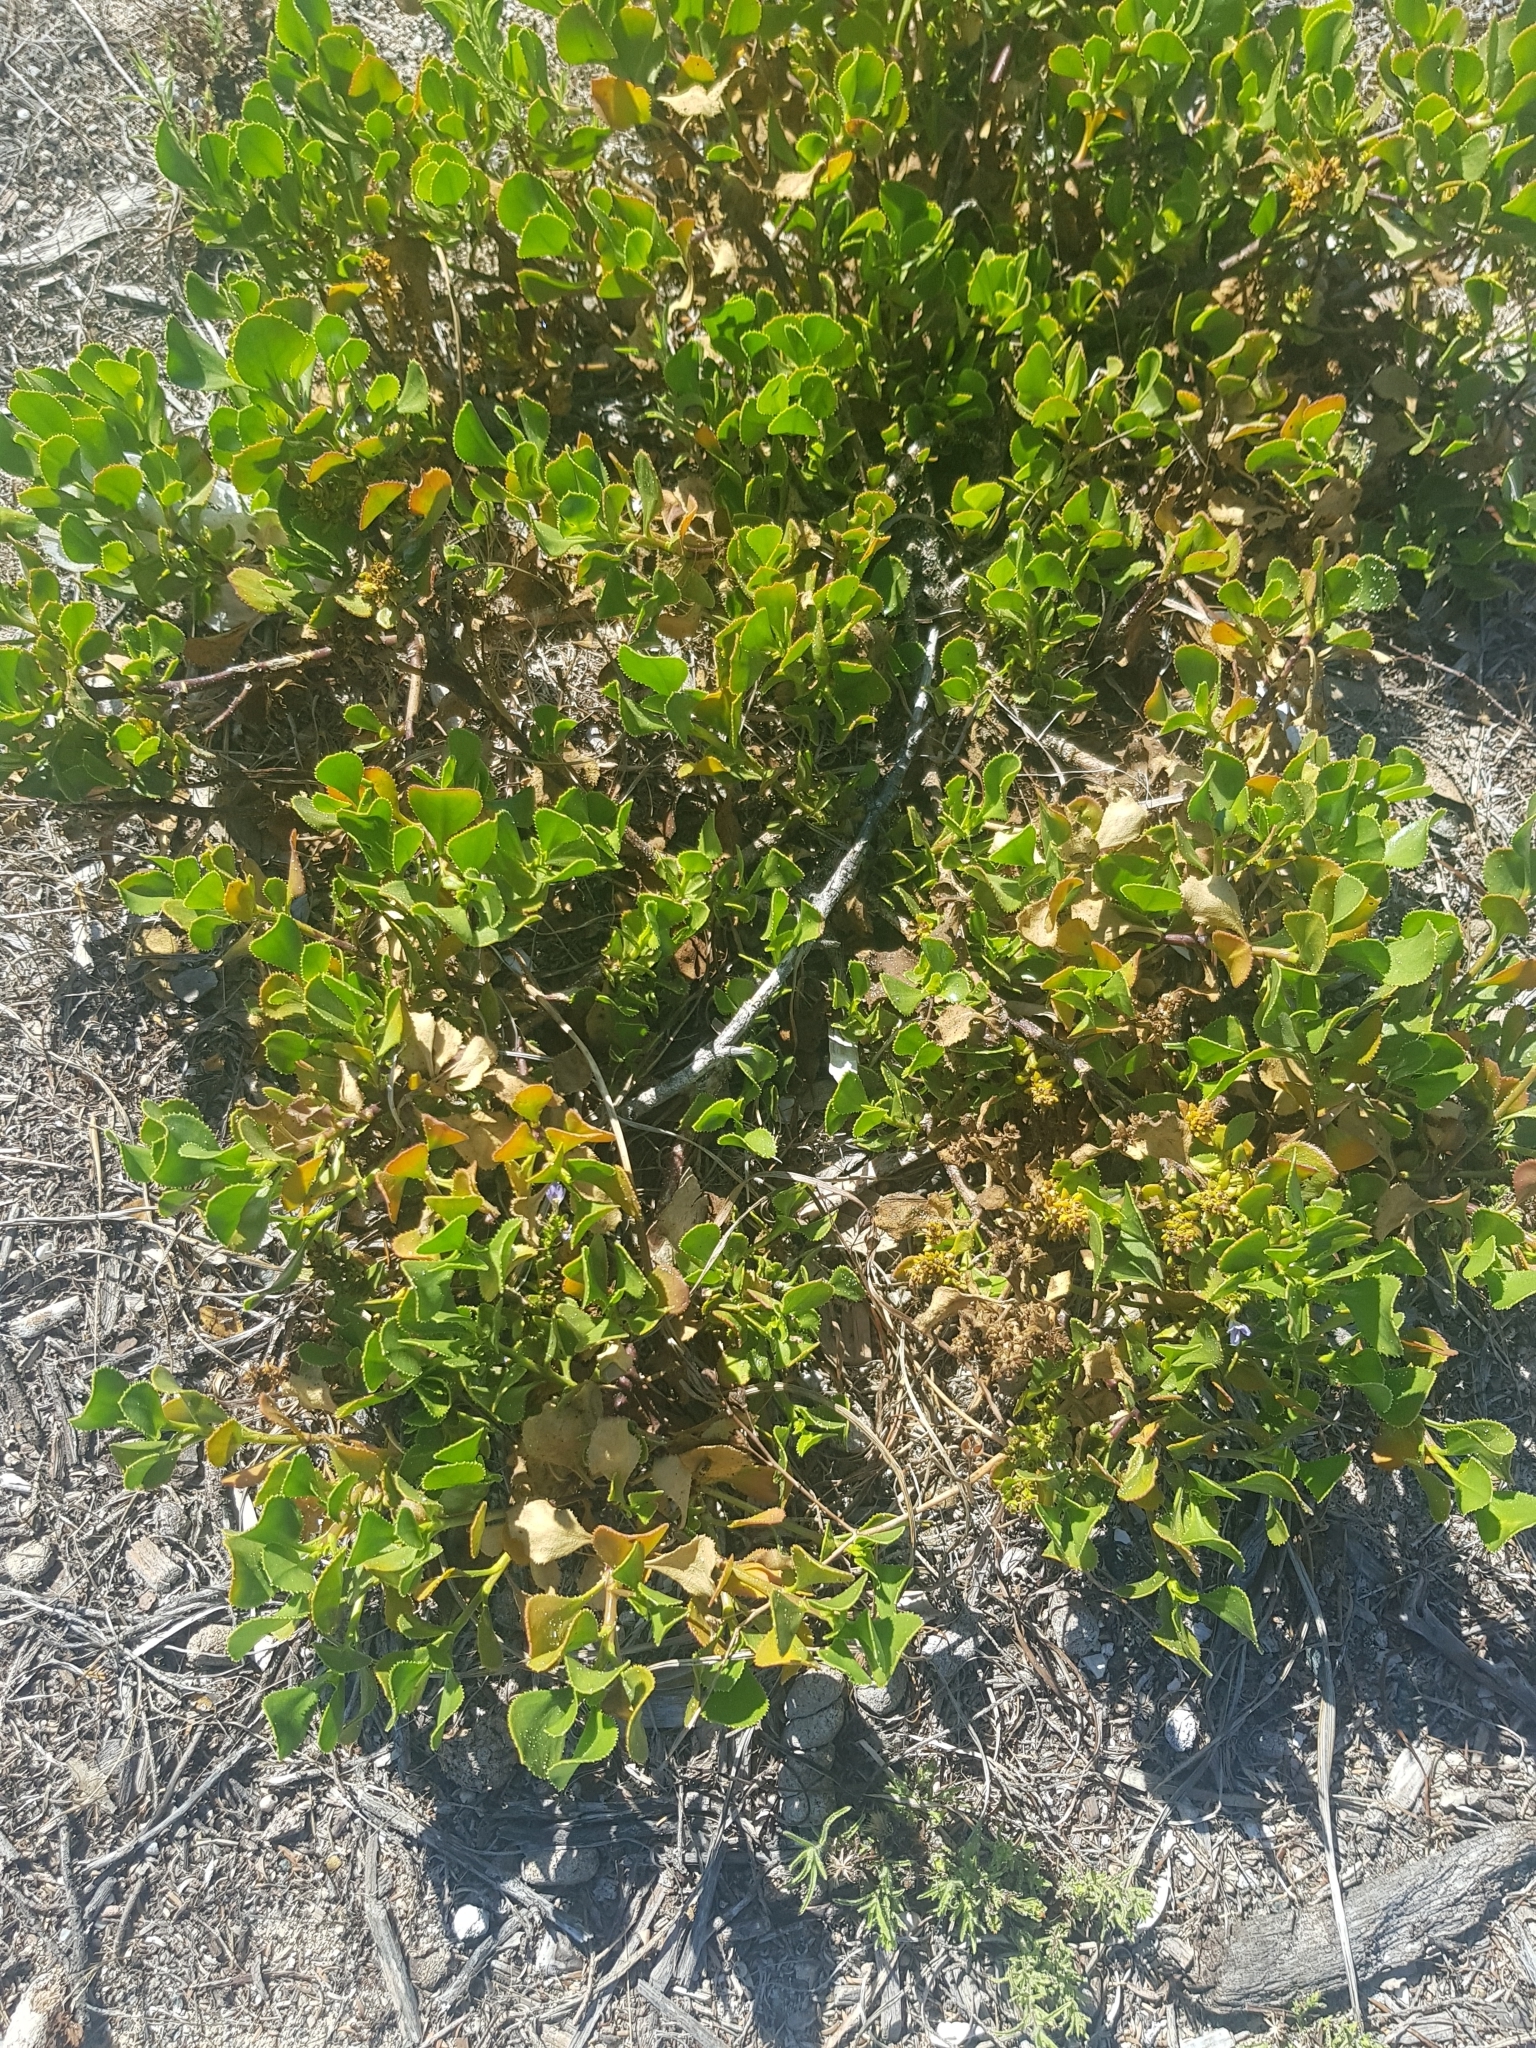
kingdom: Plantae
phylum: Tracheophyta
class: Magnoliopsida
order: Asterales
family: Goodeniaceae
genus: Scaevola
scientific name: Scaevola crassifolia
